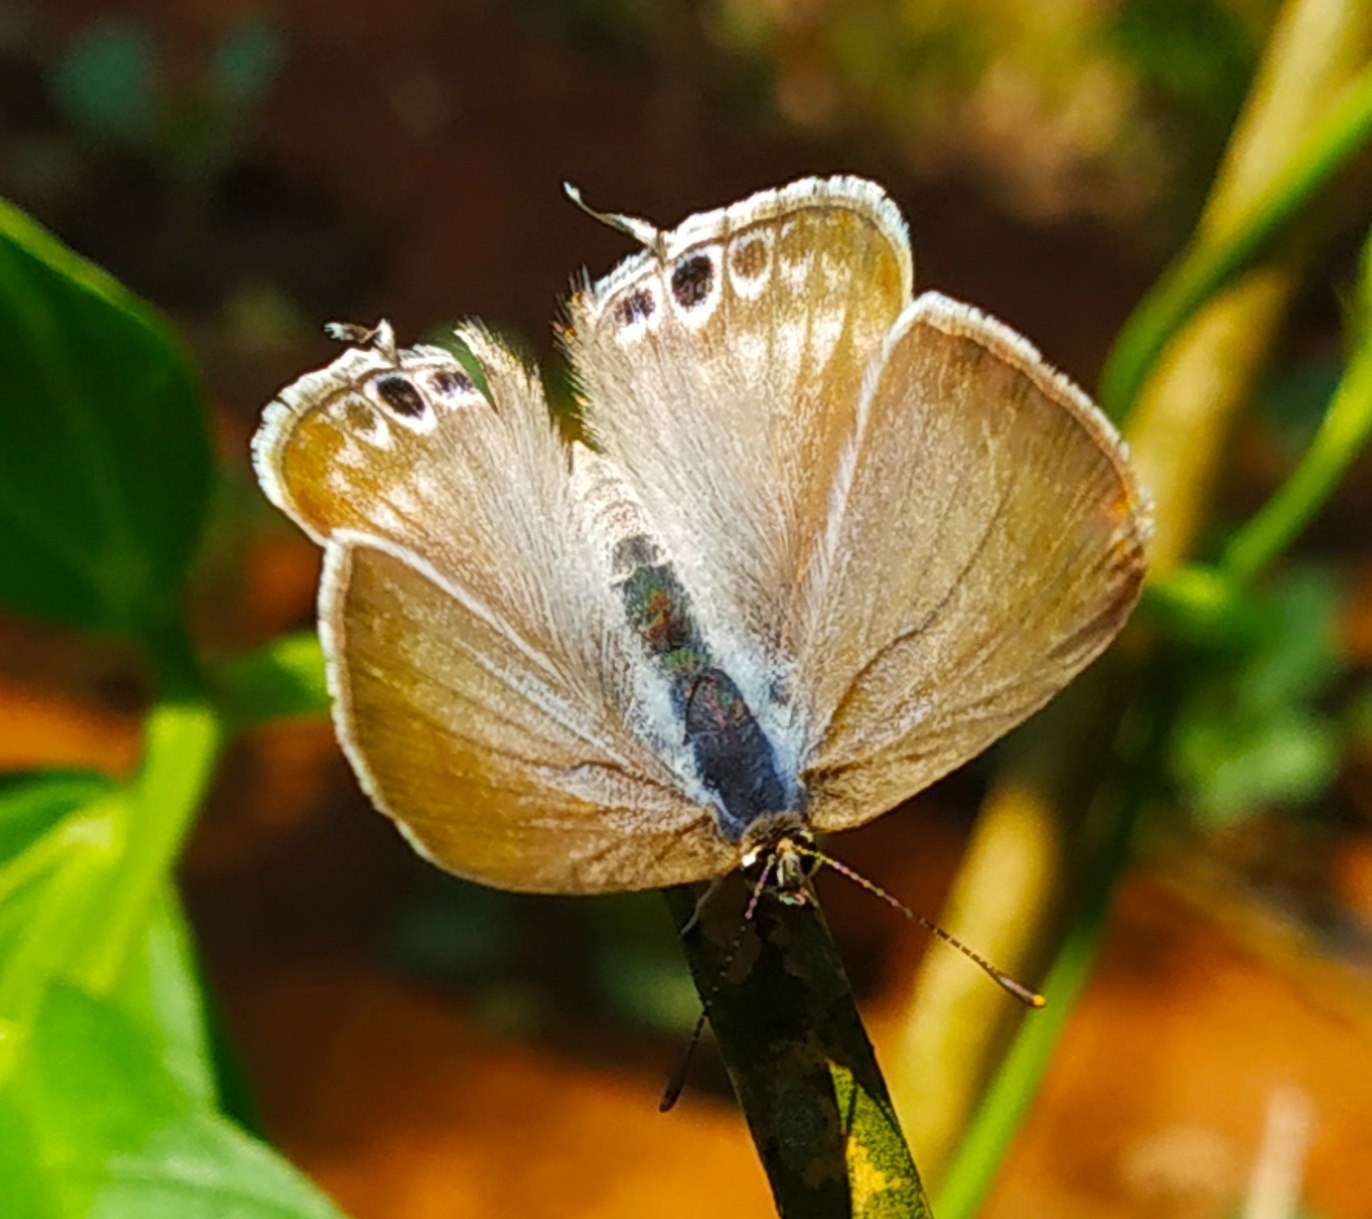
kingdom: Animalia
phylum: Arthropoda
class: Insecta
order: Lepidoptera
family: Lycaenidae
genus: Lampides
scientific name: Lampides boeticus
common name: Long-tailed blue
